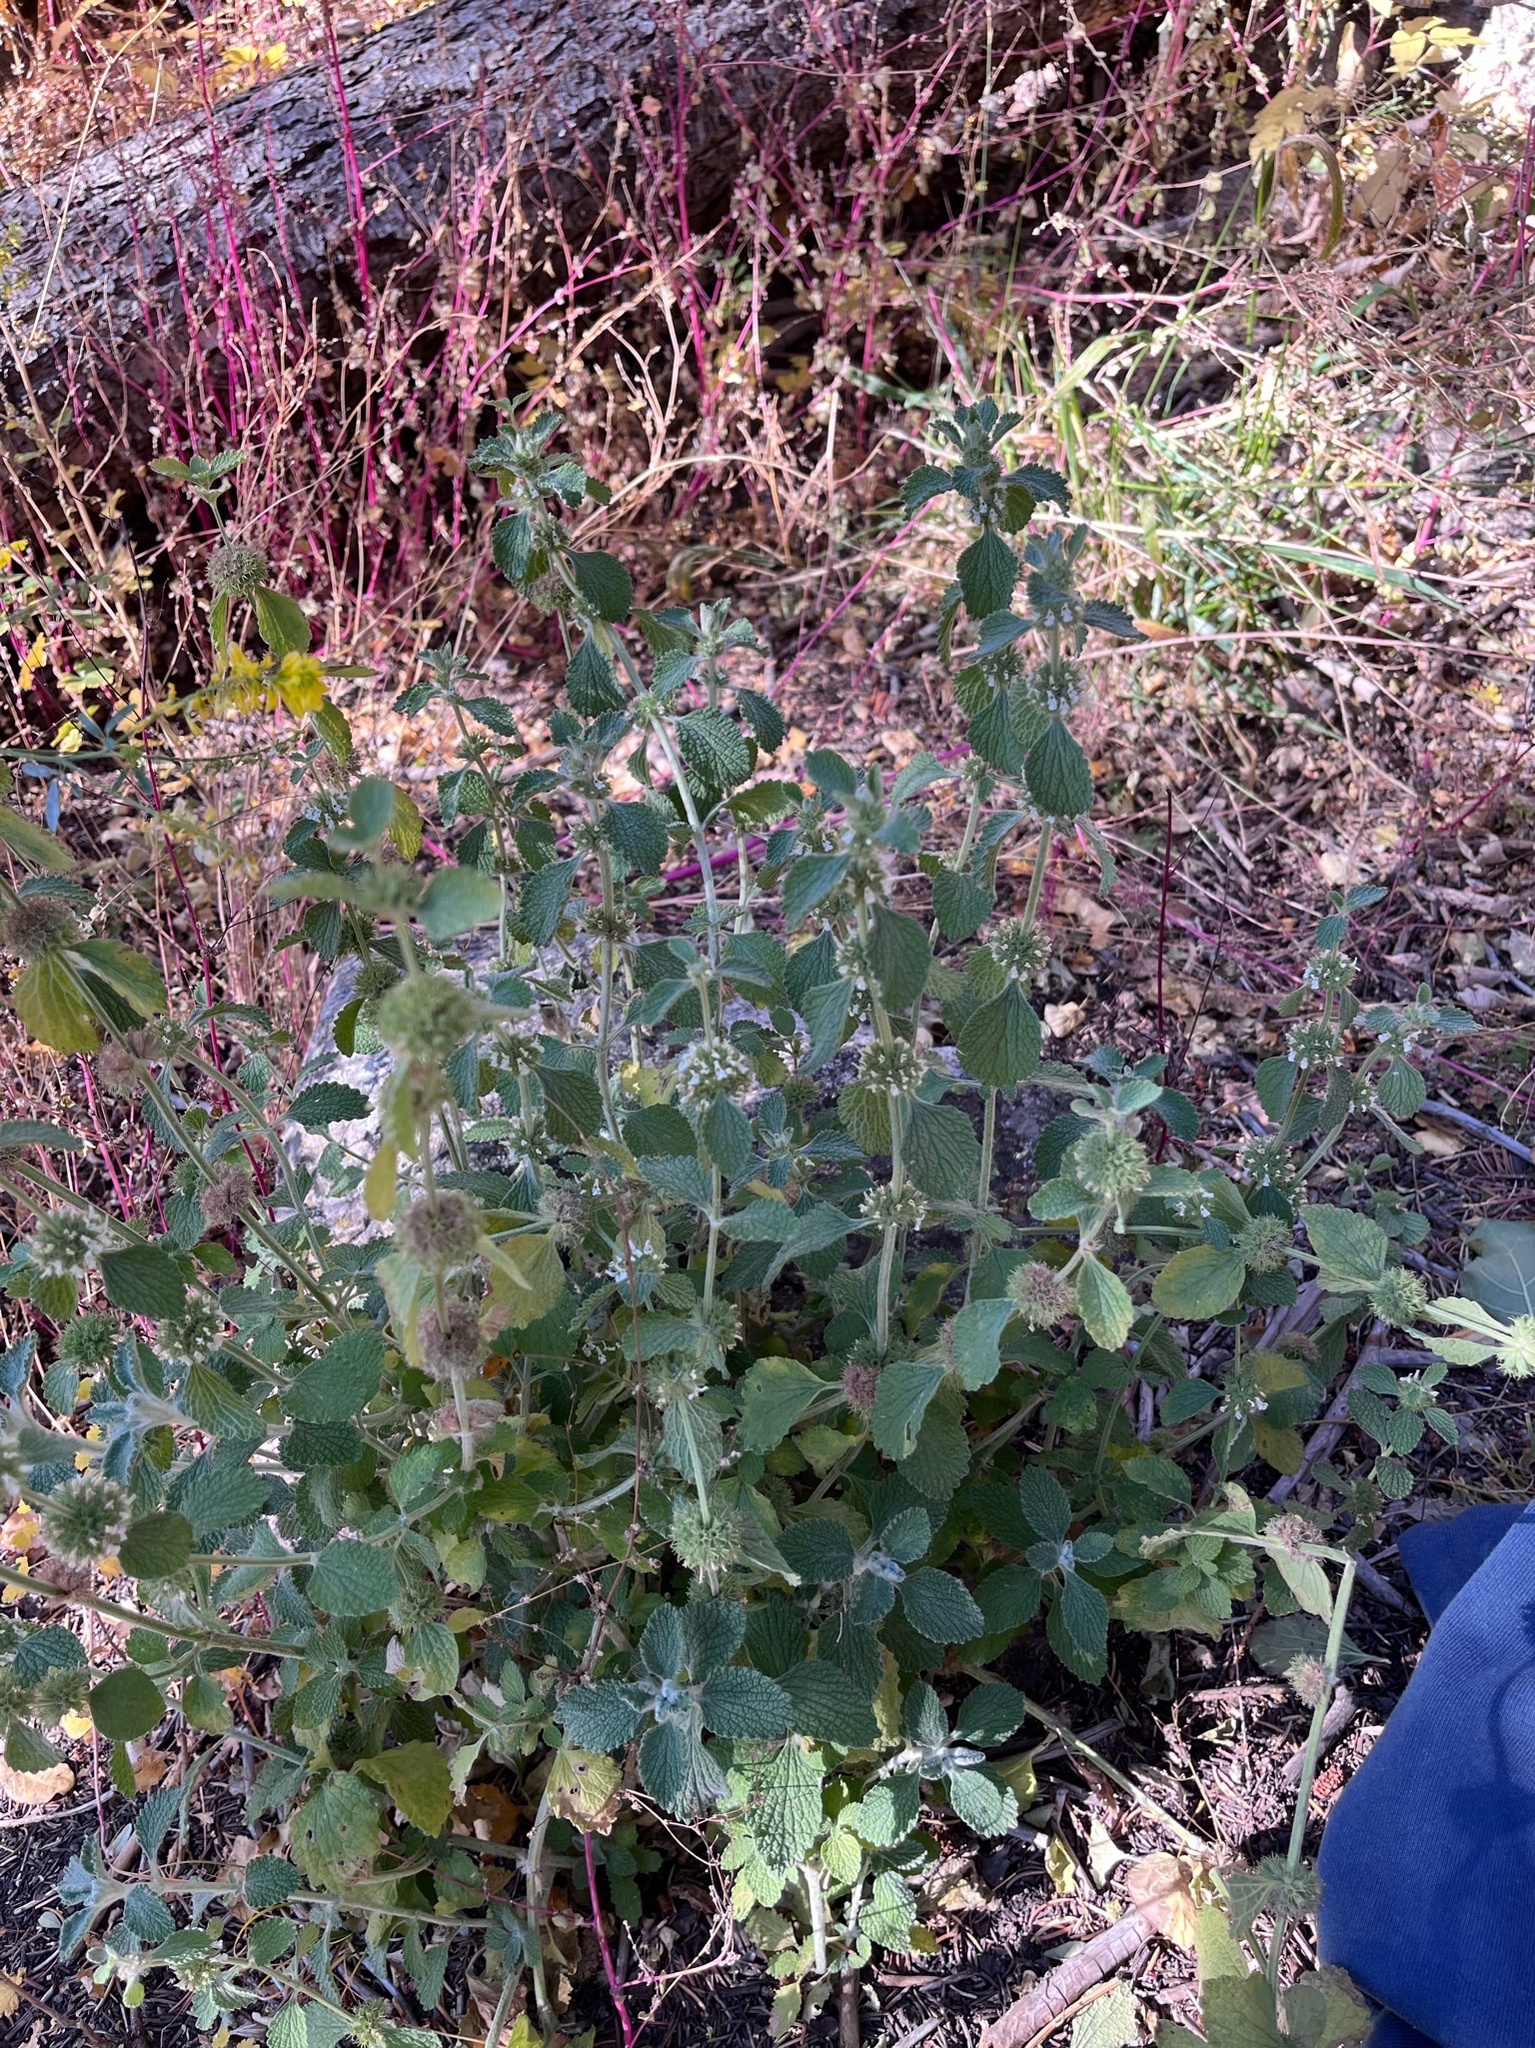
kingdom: Plantae
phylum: Tracheophyta
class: Magnoliopsida
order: Lamiales
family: Lamiaceae
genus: Marrubium
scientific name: Marrubium vulgare
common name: Horehound
